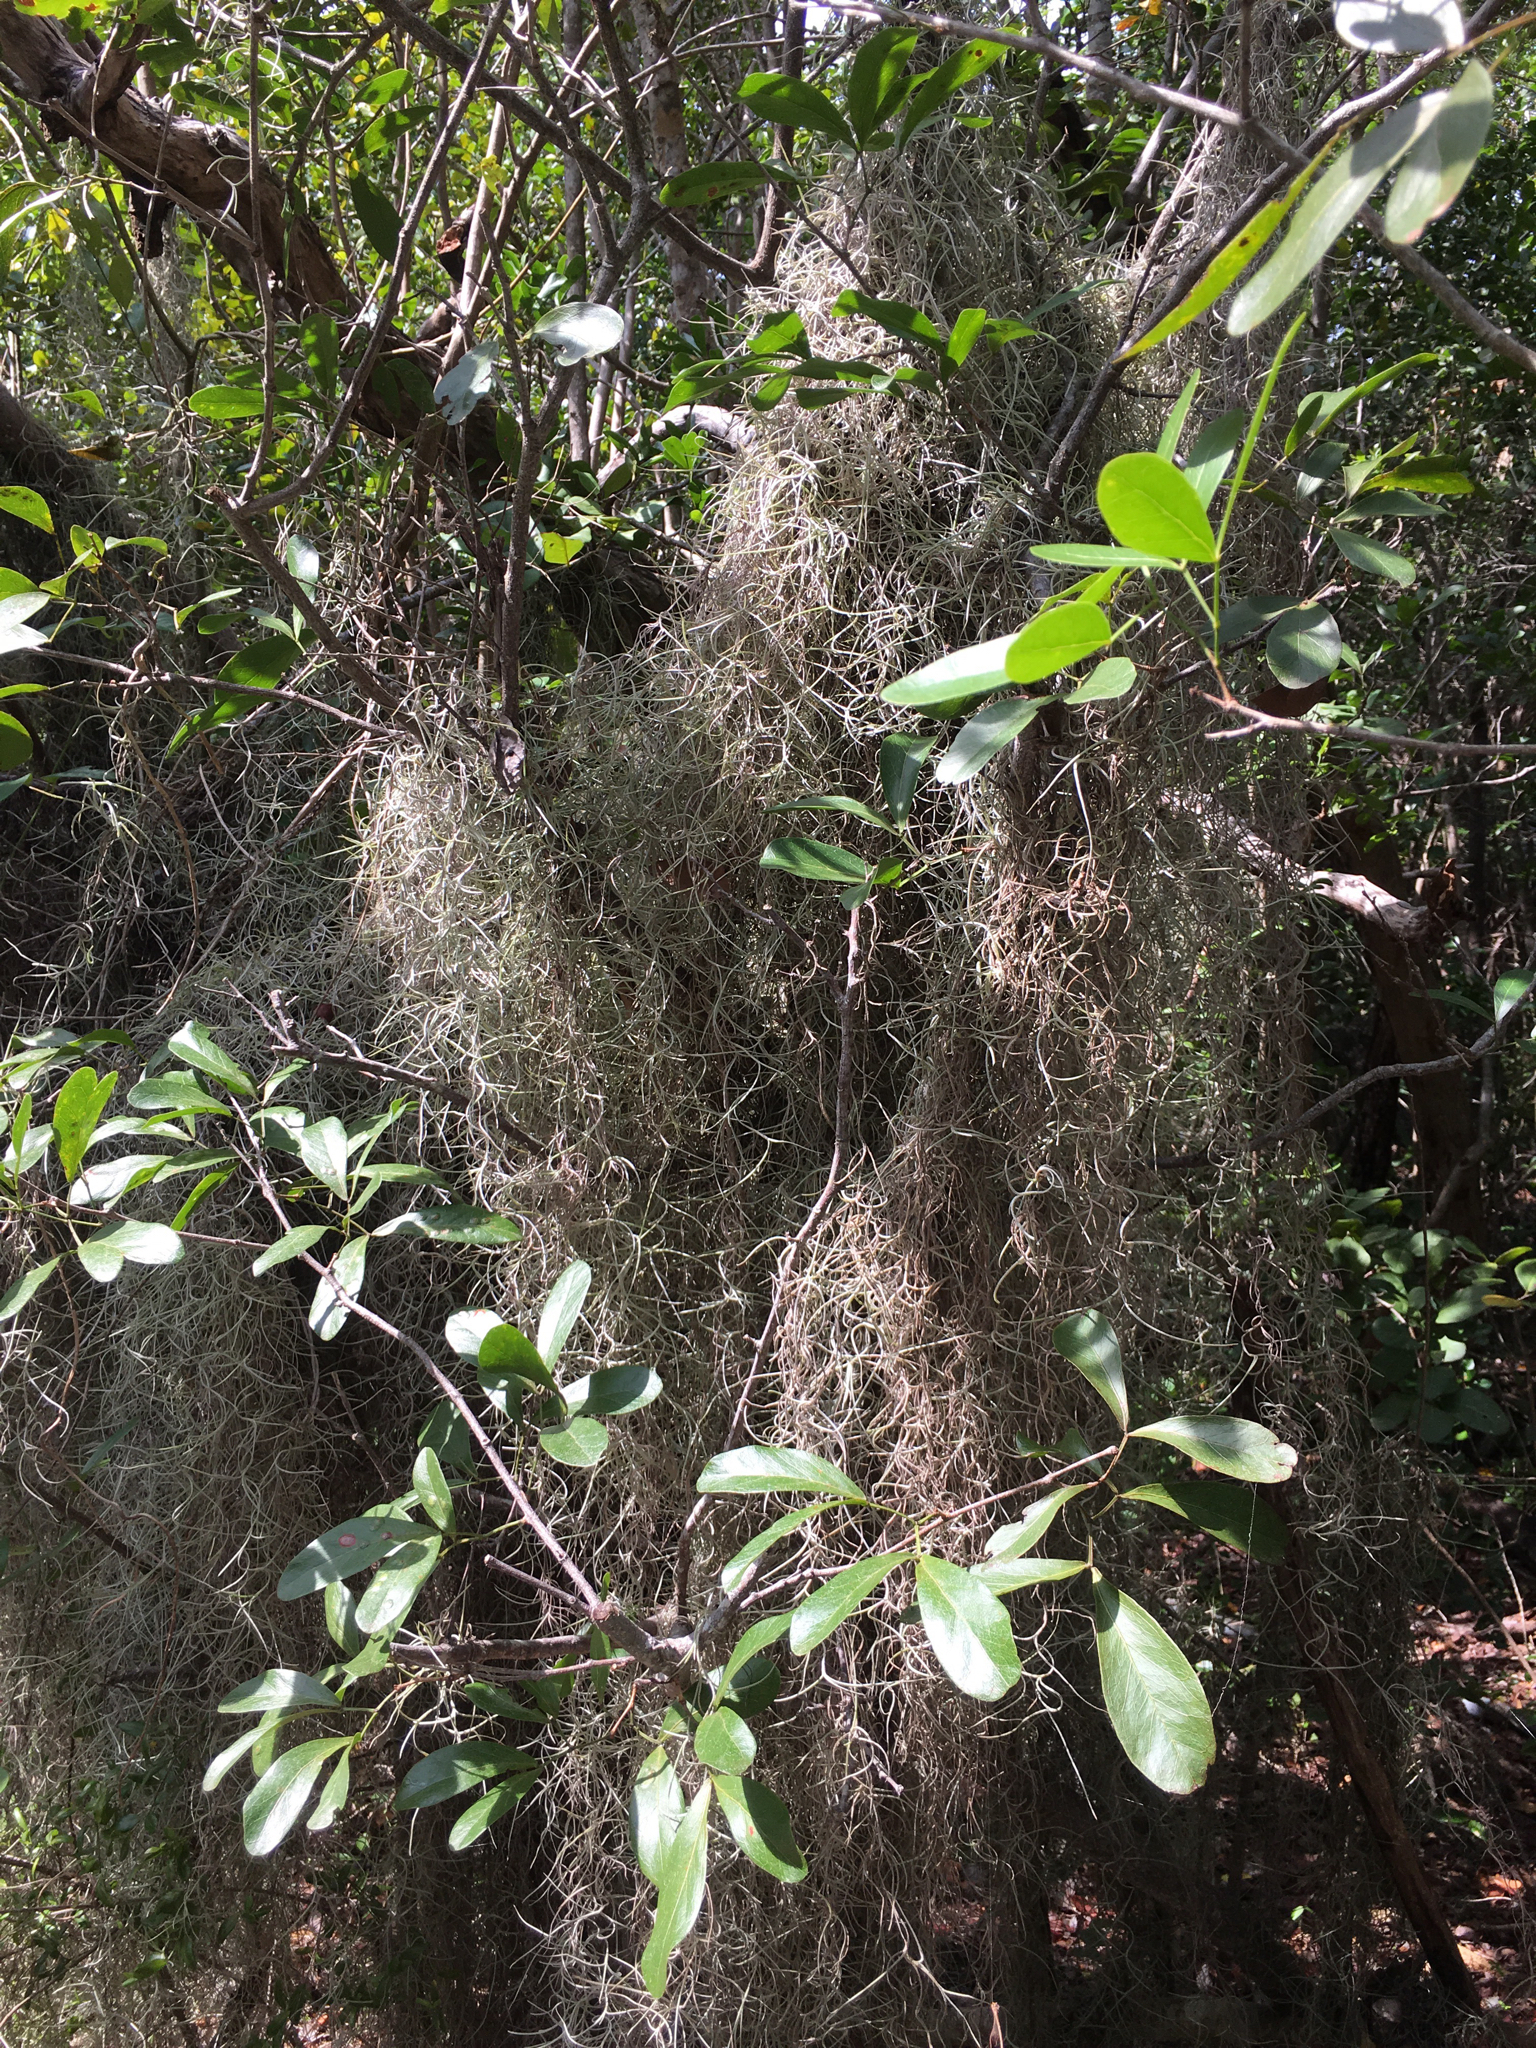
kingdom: Plantae
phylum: Tracheophyta
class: Liliopsida
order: Poales
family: Bromeliaceae
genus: Tillandsia
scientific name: Tillandsia usneoides
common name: Spanish moss
